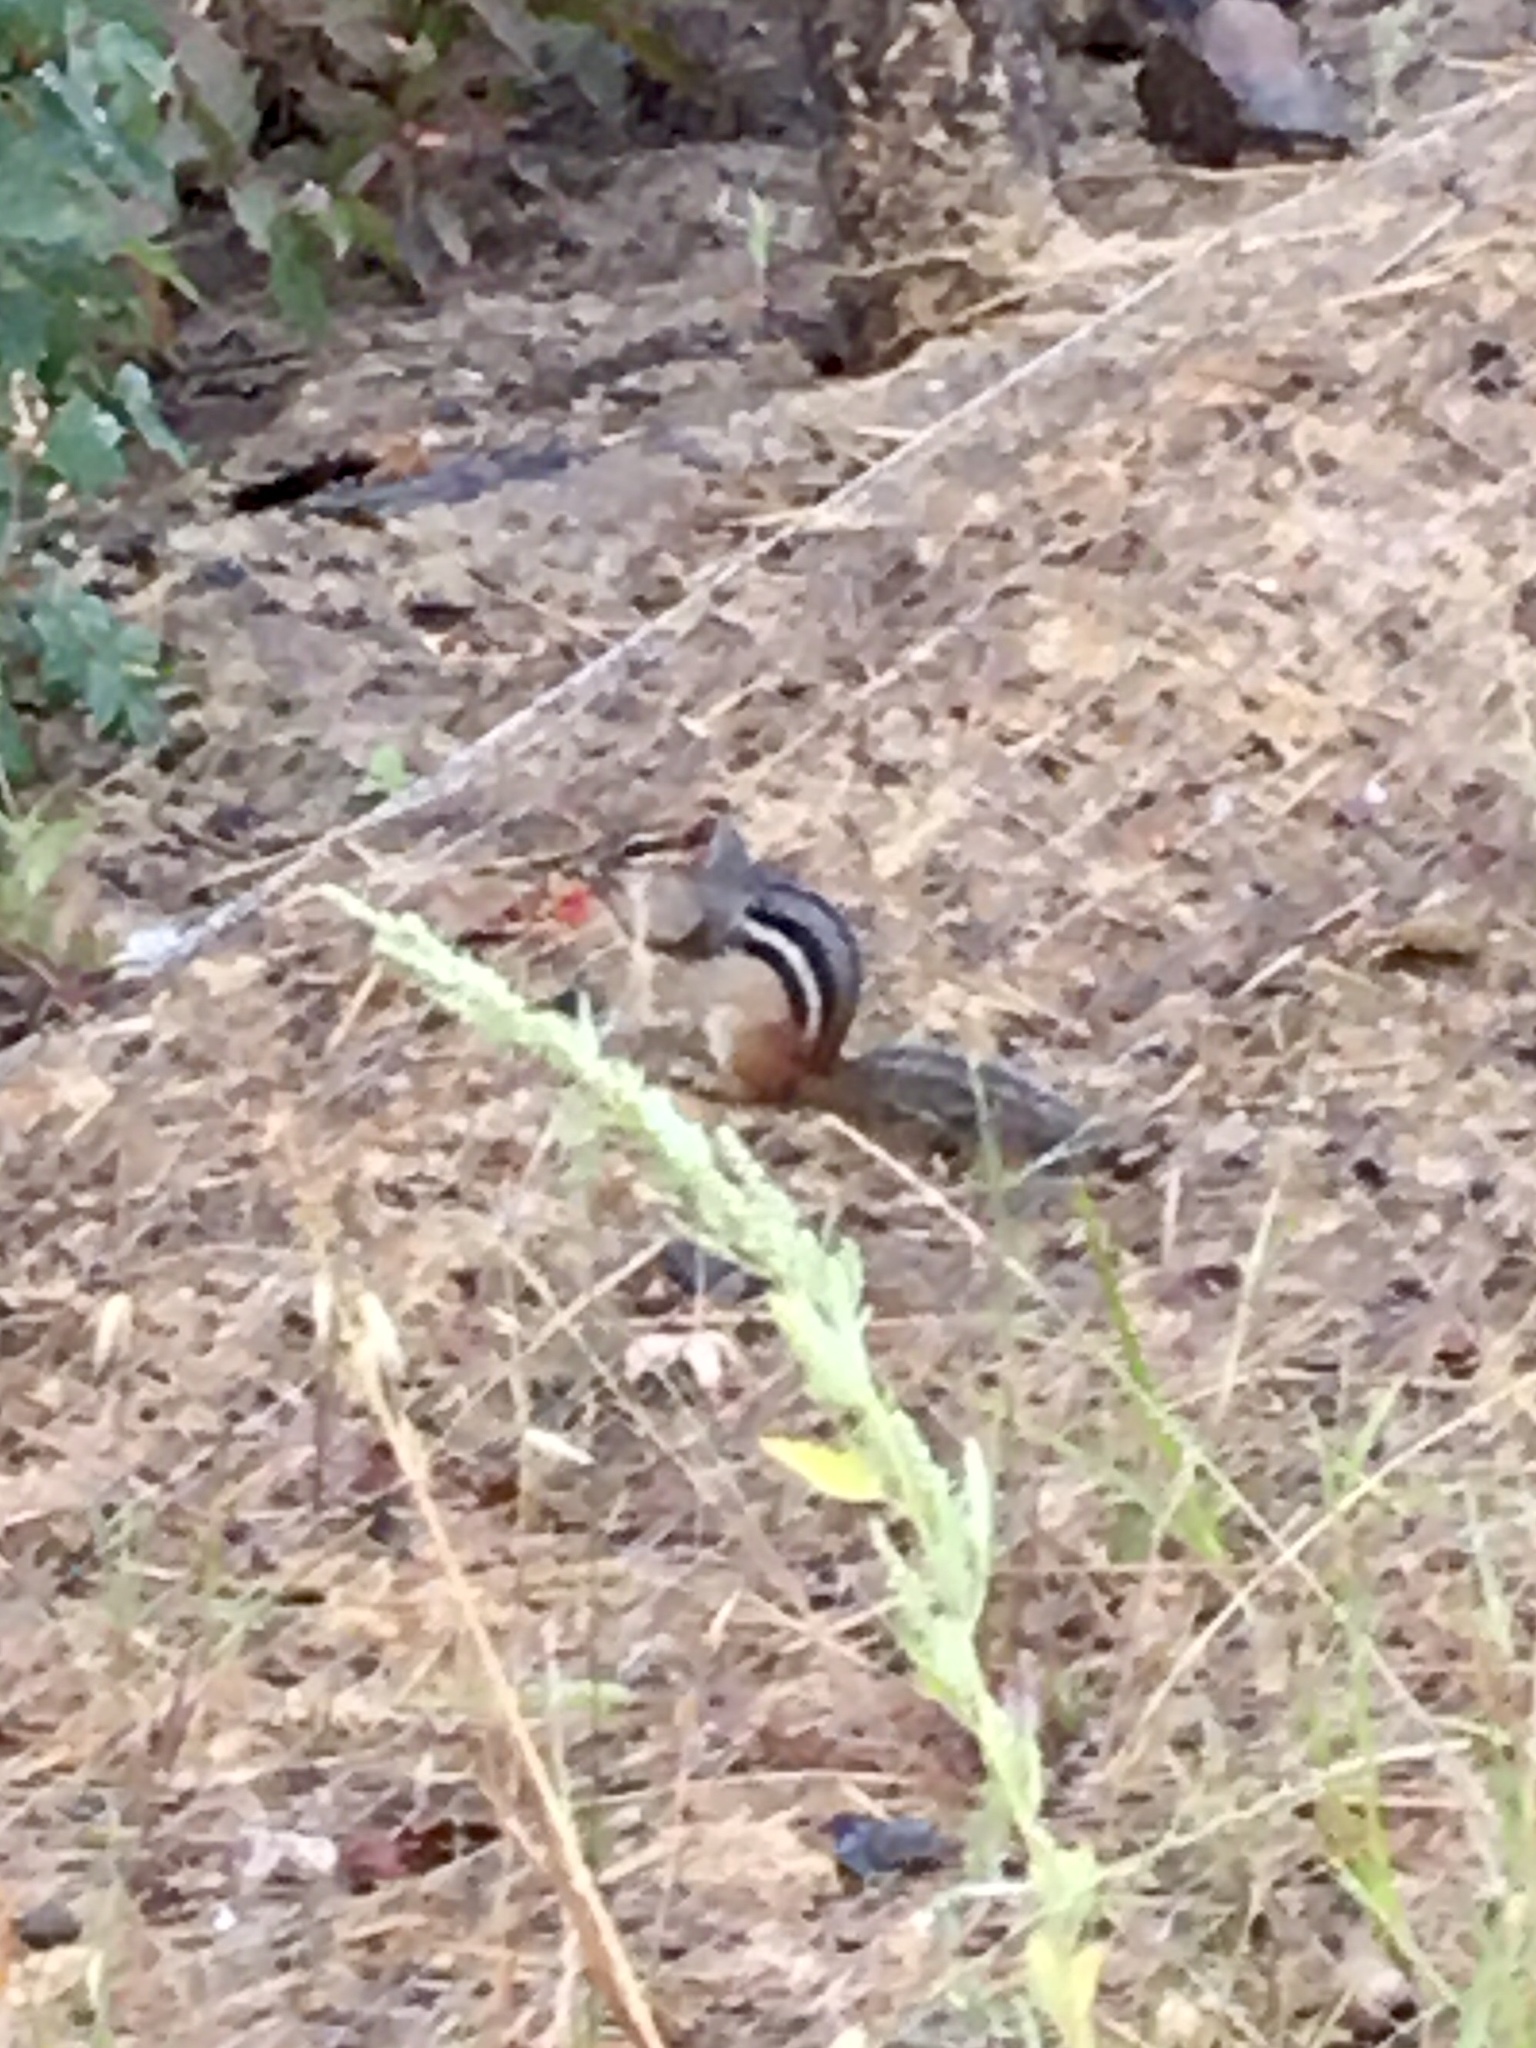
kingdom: Animalia
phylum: Chordata
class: Mammalia
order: Rodentia
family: Sciuridae
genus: Tamias
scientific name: Tamias striatus
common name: Eastern chipmunk
